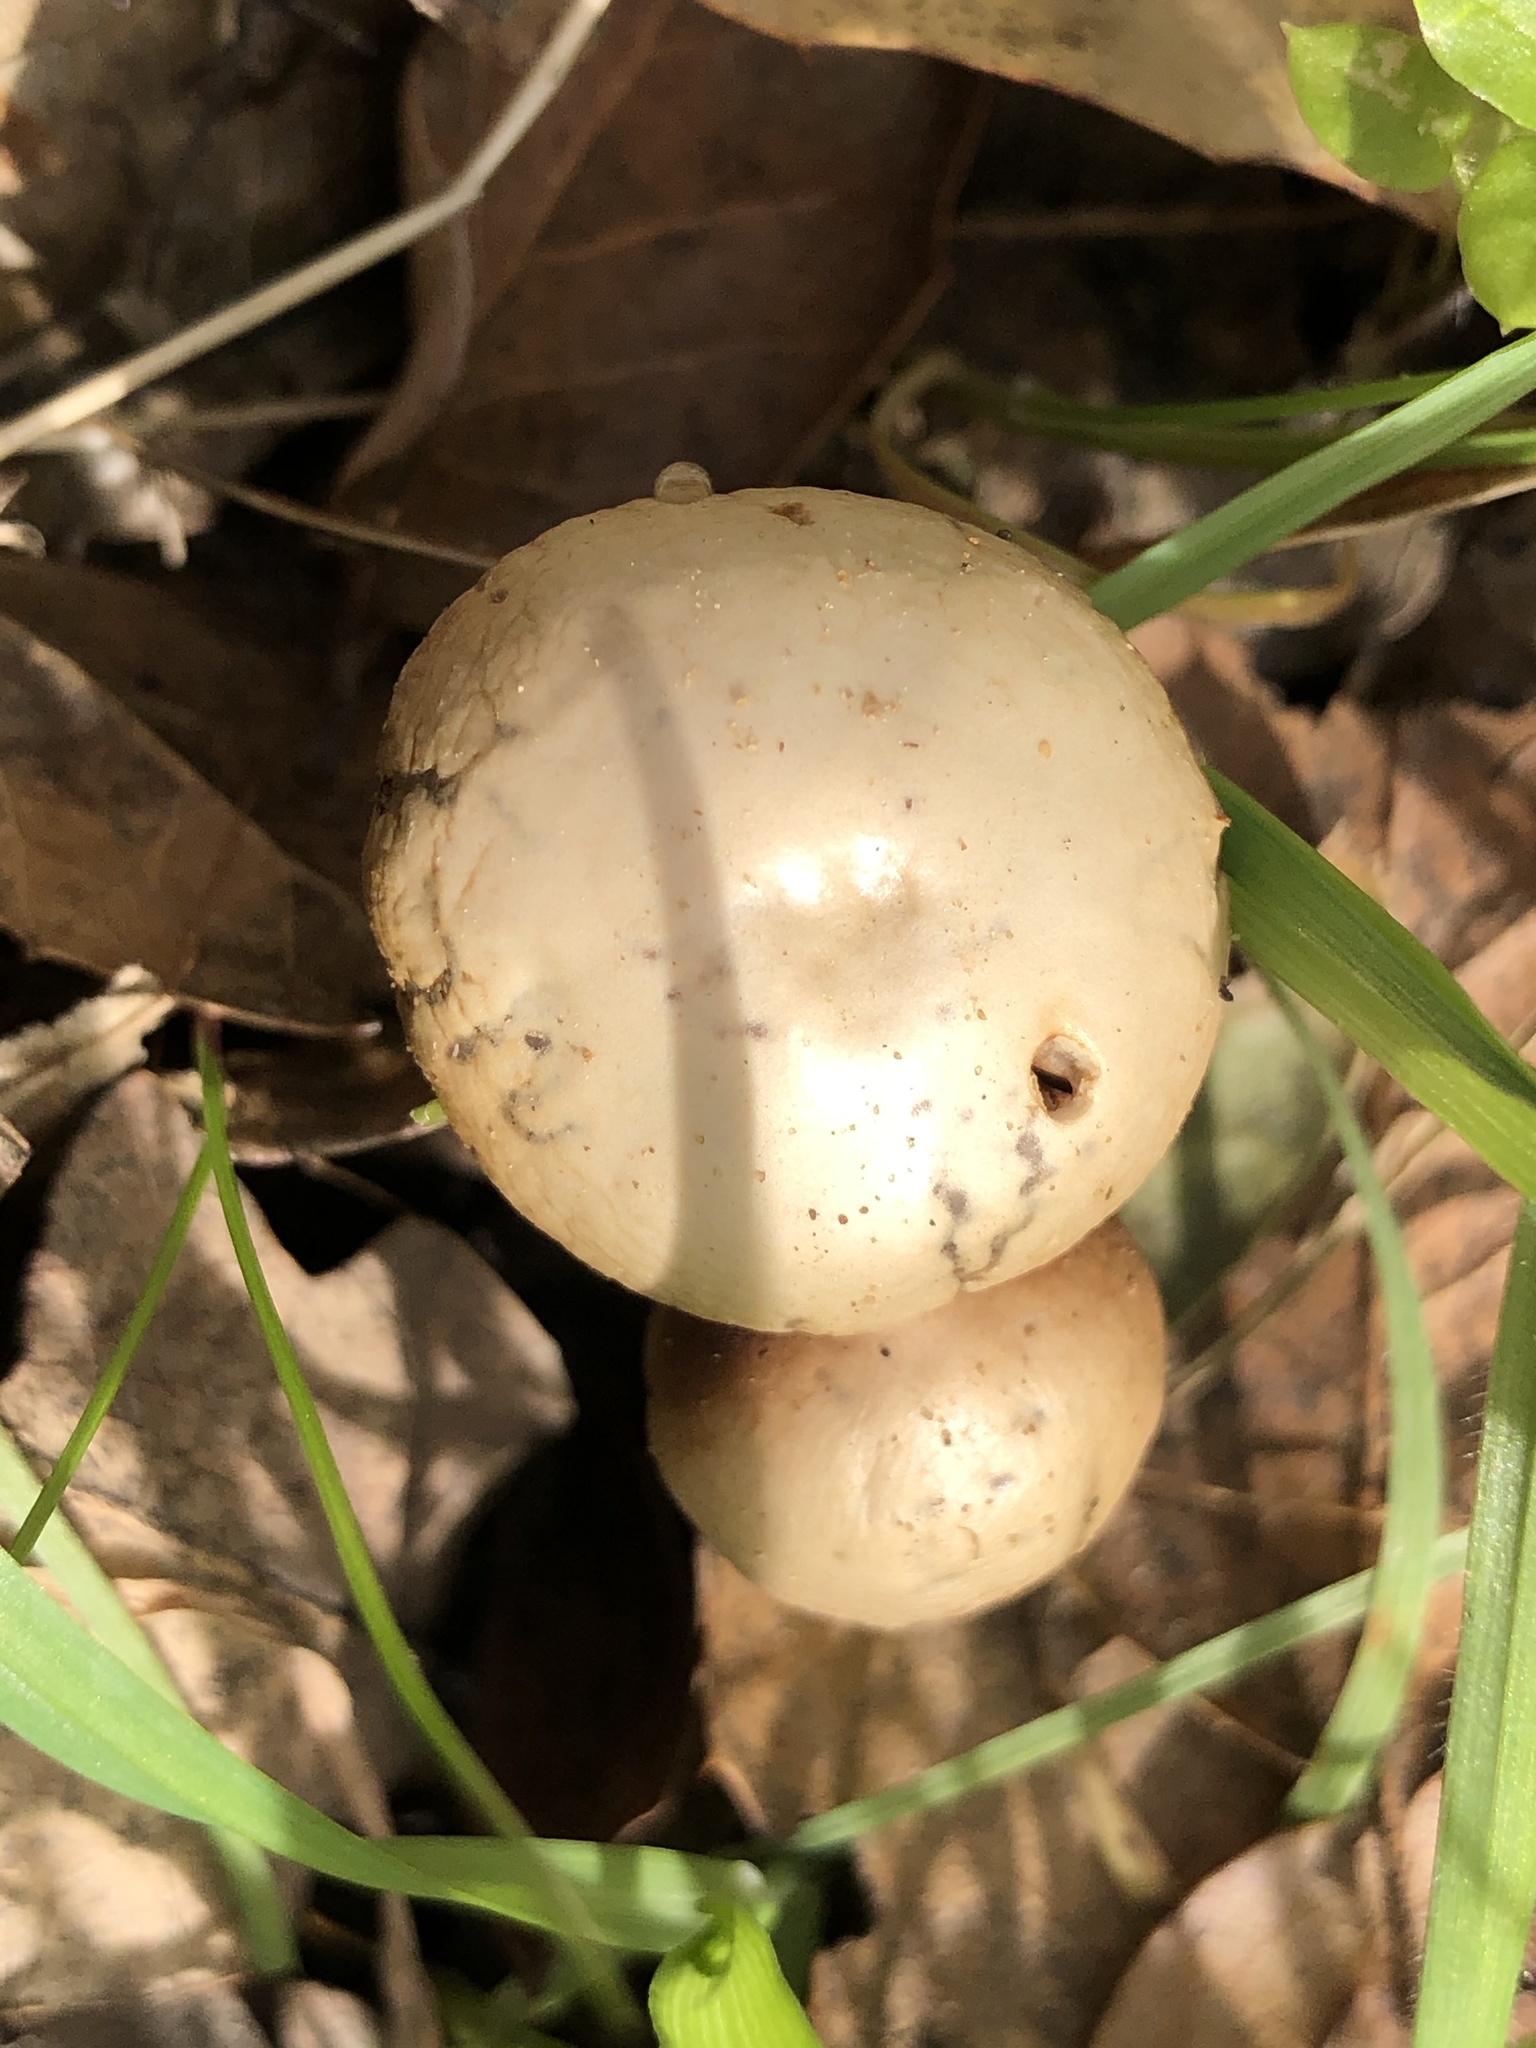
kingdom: Fungi
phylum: Basidiomycota
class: Agaricomycetes
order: Agaricales
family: Strophariaceae
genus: Deconica
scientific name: Deconica coprophila
